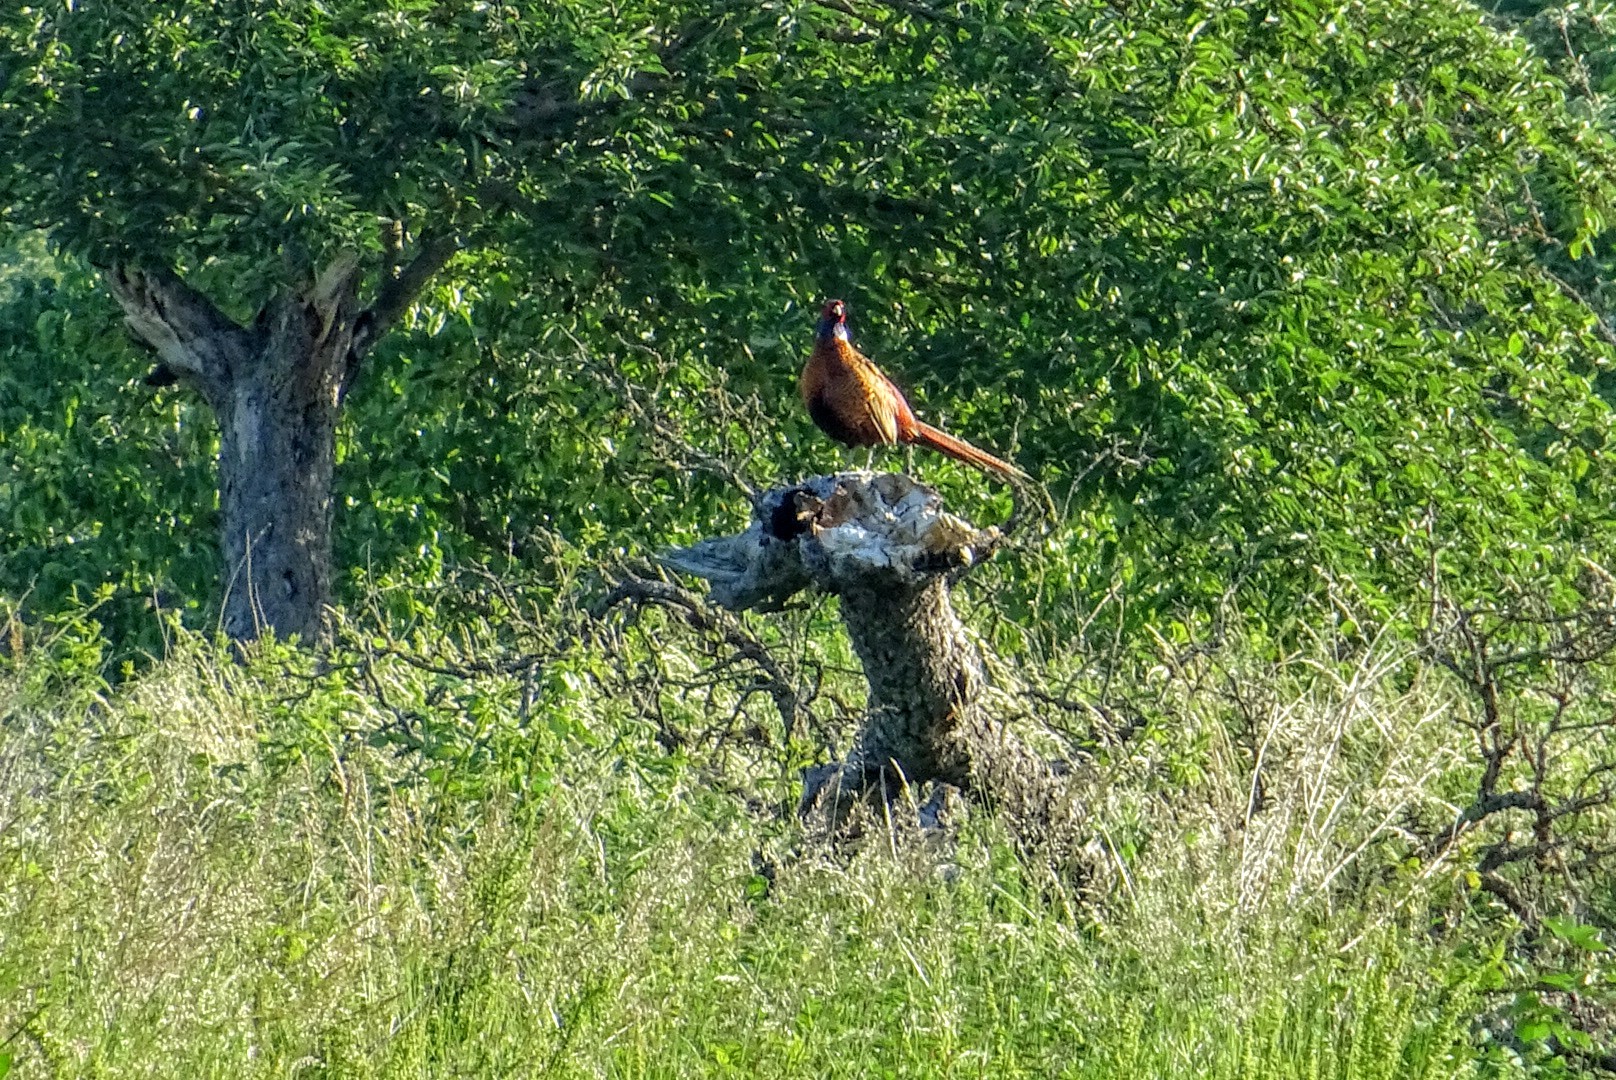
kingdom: Animalia
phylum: Chordata
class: Aves
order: Galliformes
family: Phasianidae
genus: Phasianus
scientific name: Phasianus colchicus
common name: Common pheasant
